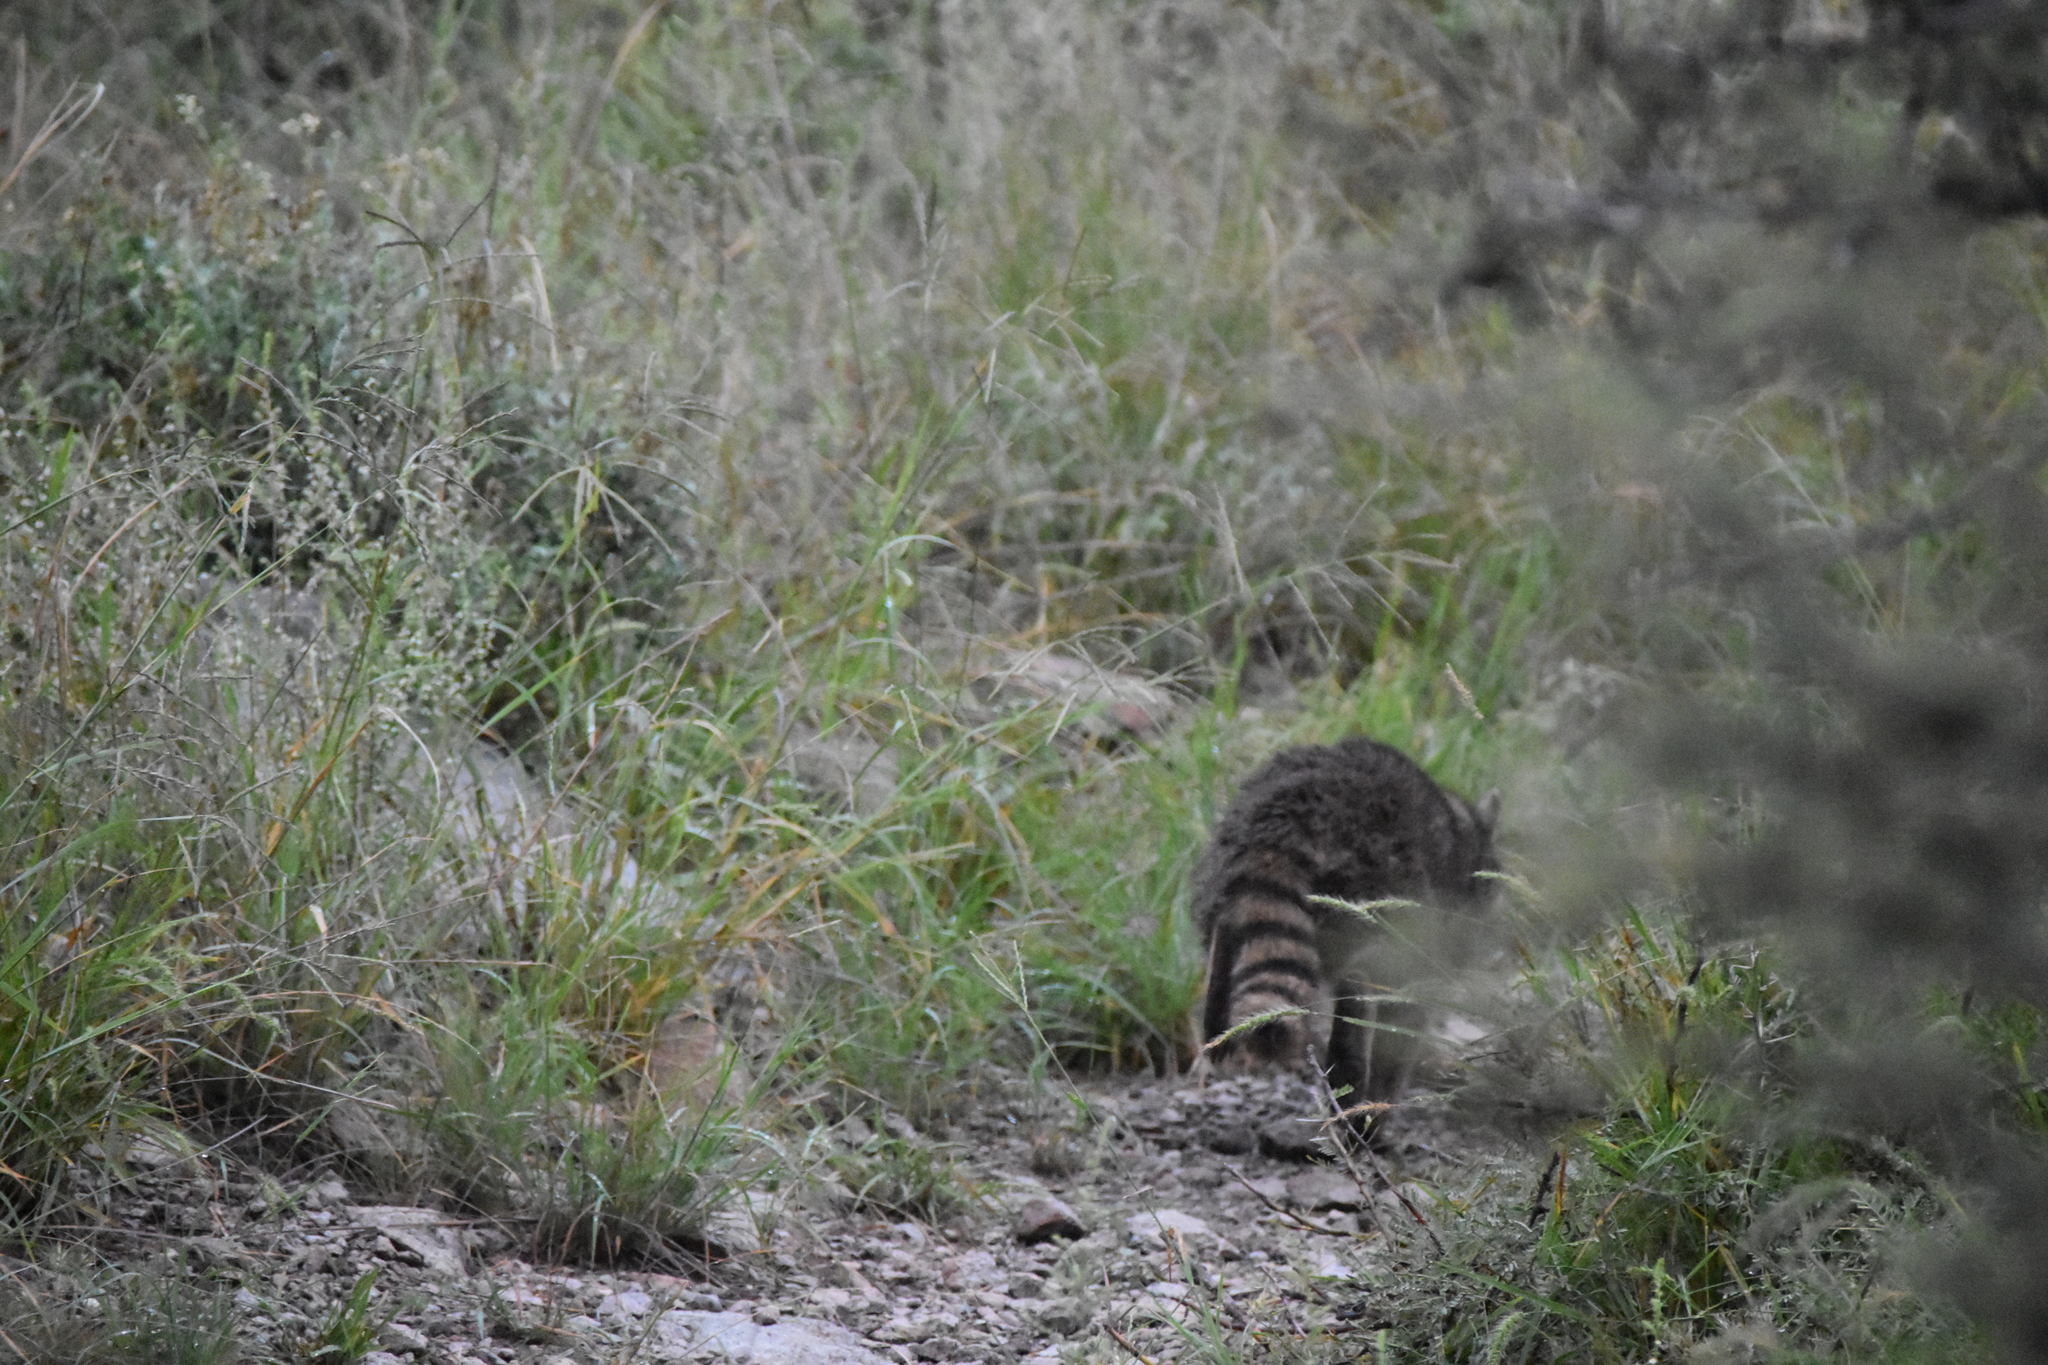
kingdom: Animalia
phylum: Chordata
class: Mammalia
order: Carnivora
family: Procyonidae
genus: Procyon
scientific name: Procyon lotor
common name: Raccoon
